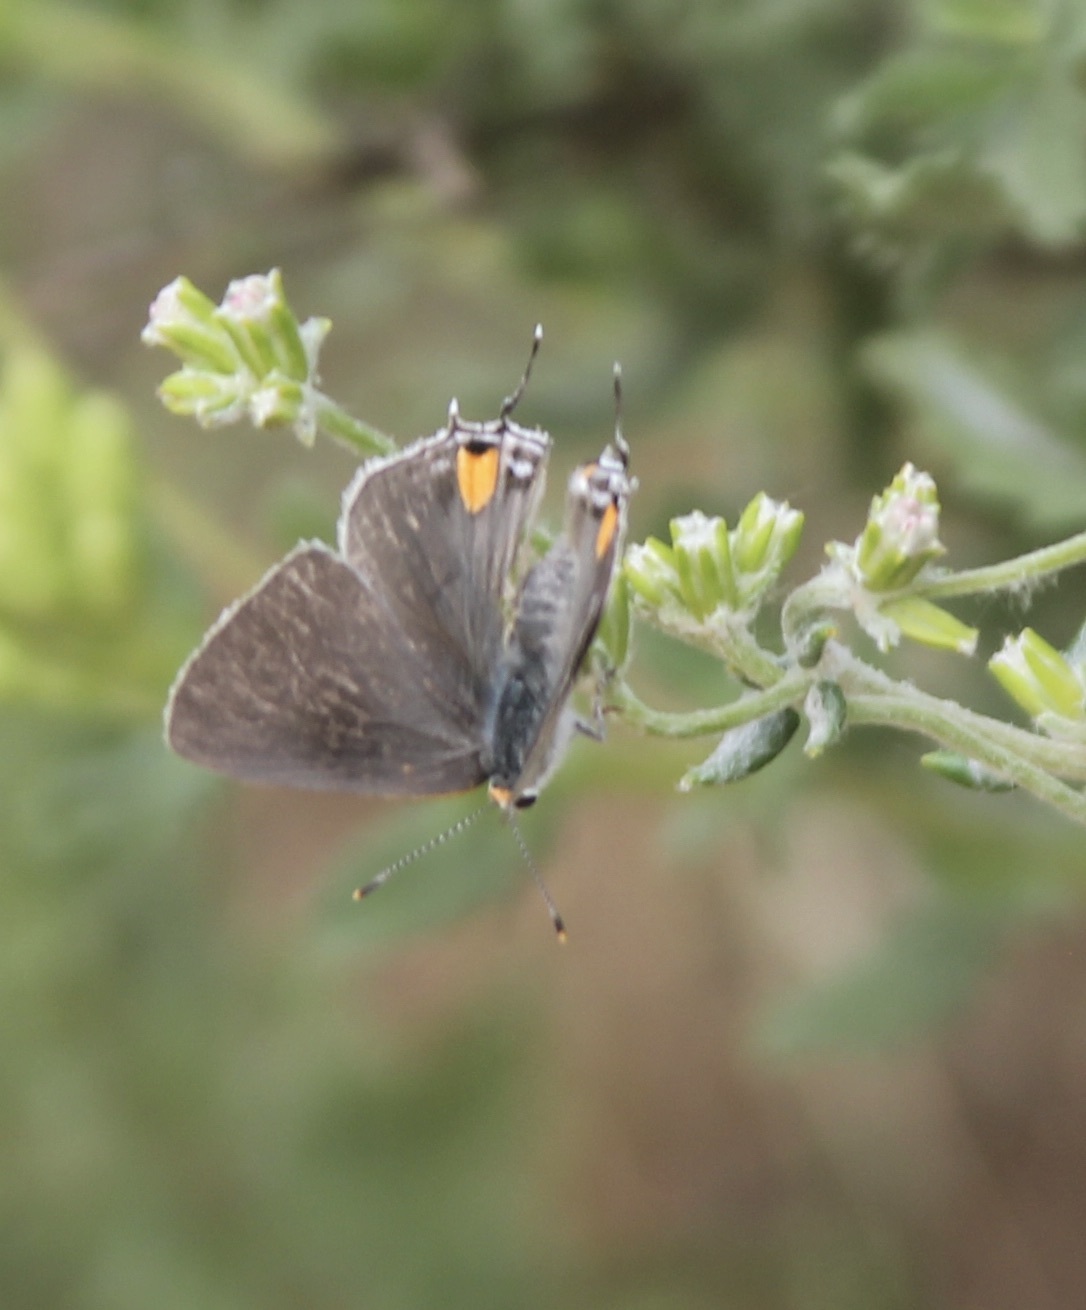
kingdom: Animalia
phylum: Arthropoda
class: Insecta
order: Lepidoptera
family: Lycaenidae
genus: Strymon
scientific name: Strymon melinus
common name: Gray hairstreak
